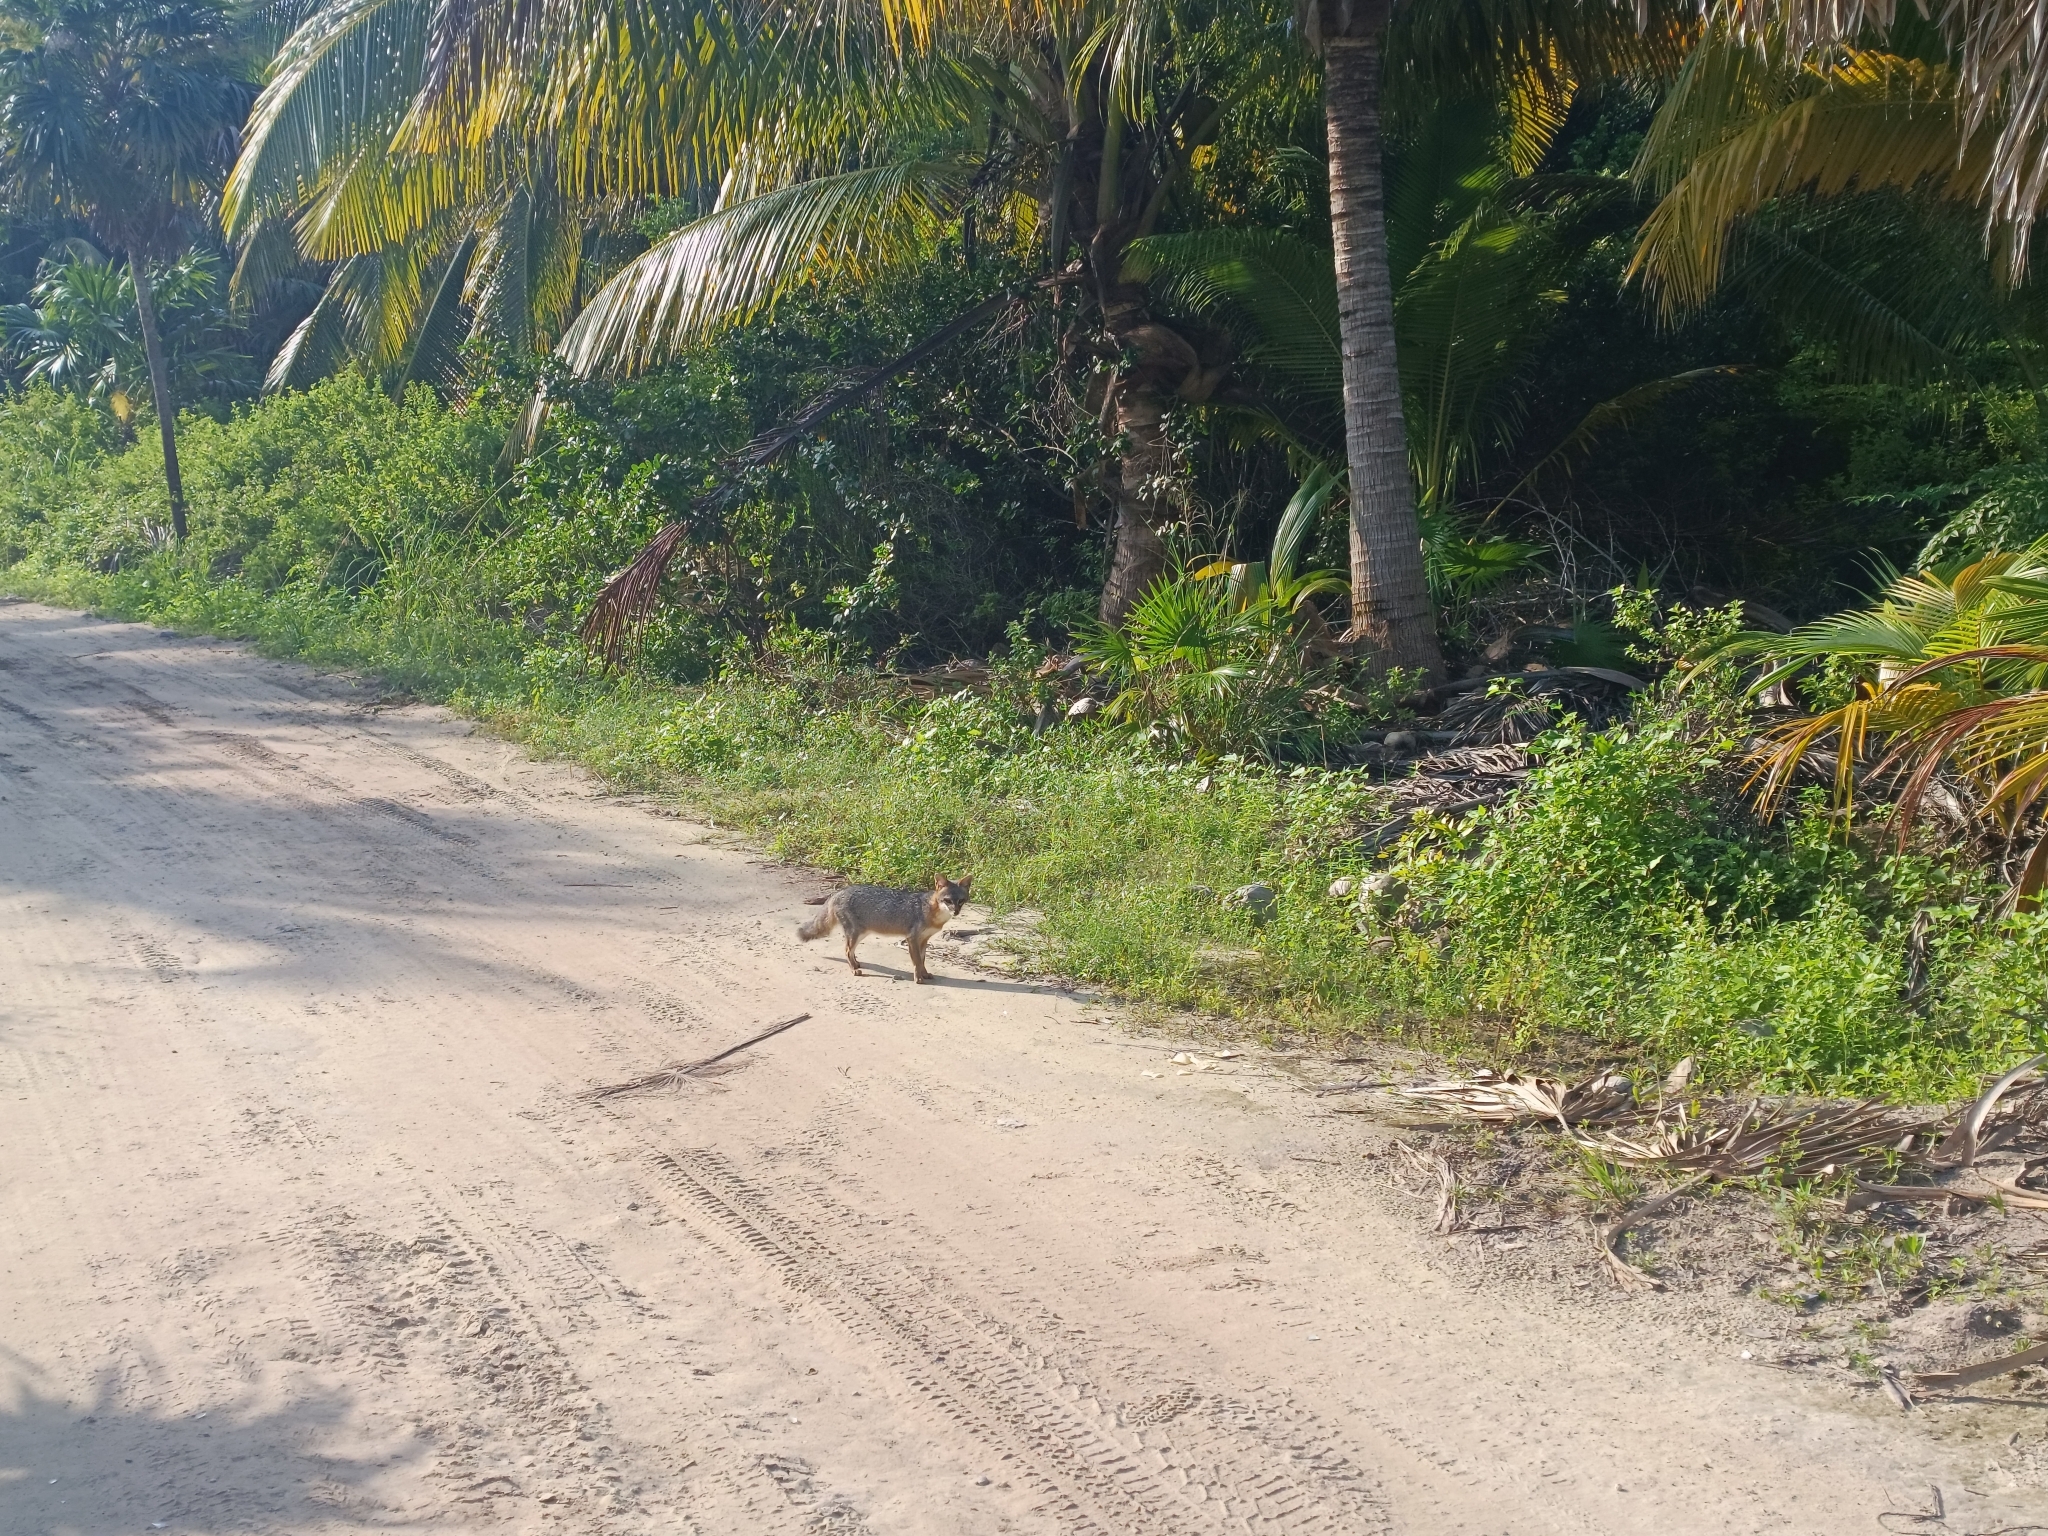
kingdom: Animalia
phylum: Chordata
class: Mammalia
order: Carnivora
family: Canidae
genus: Urocyon
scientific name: Urocyon cinereoargenteus
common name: Gray fox
